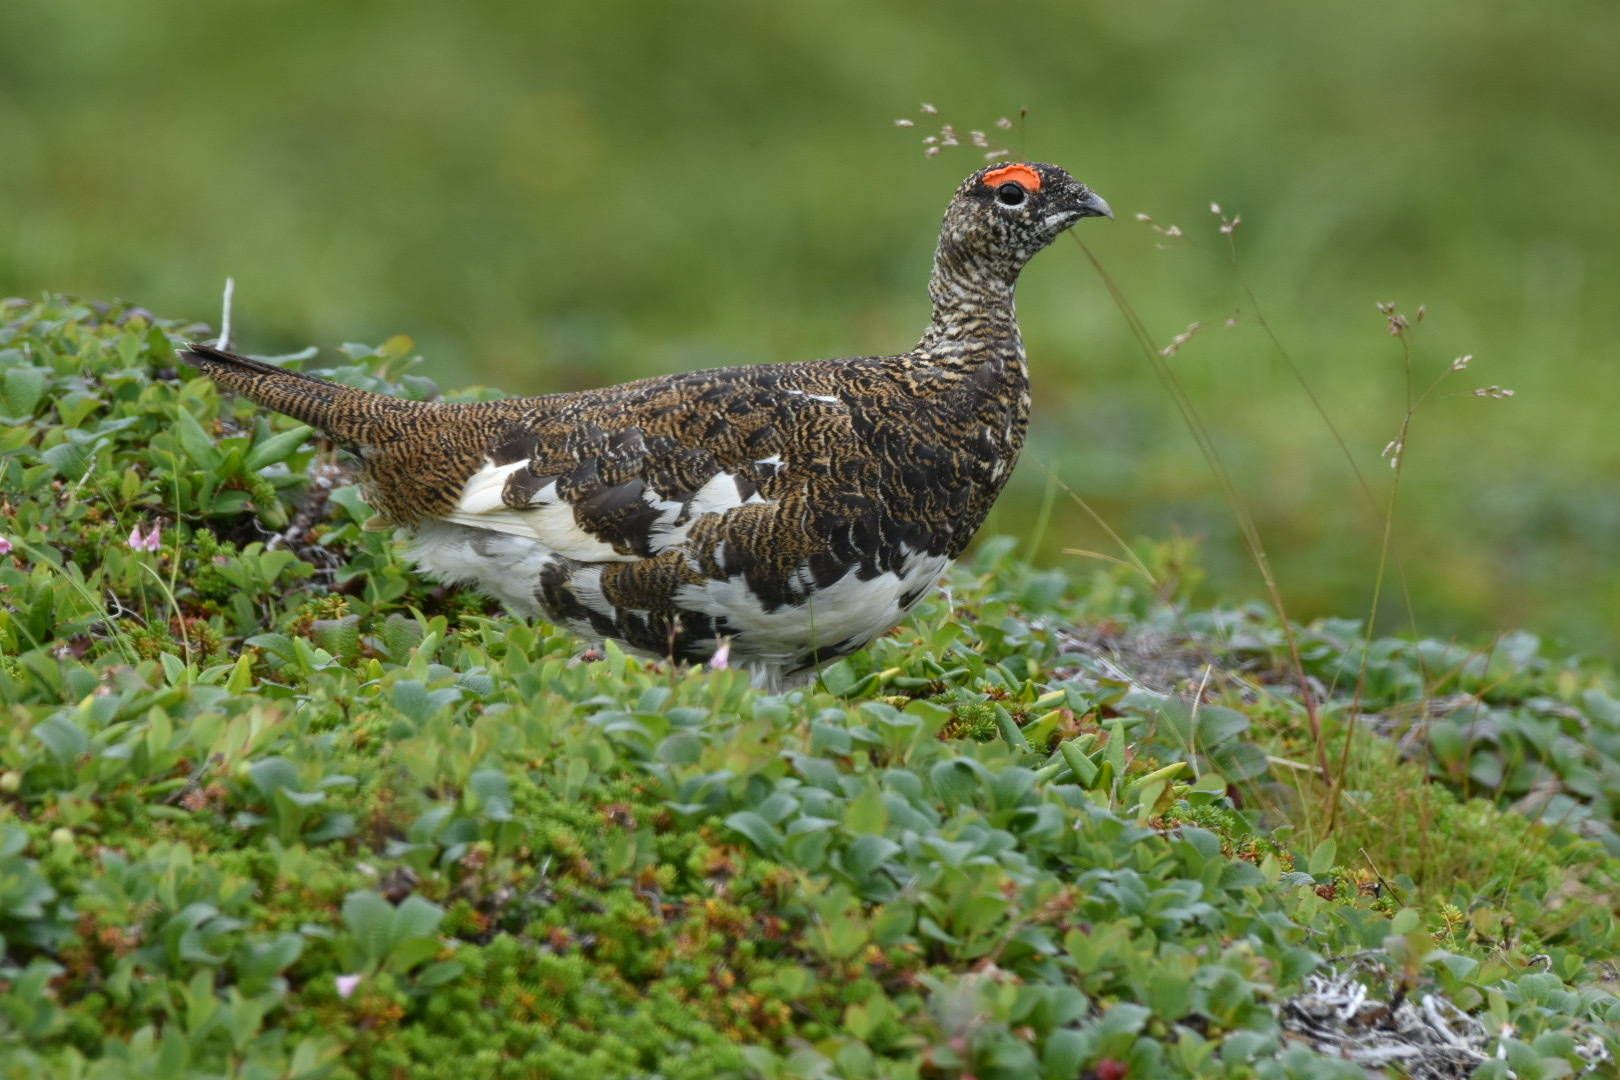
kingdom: Animalia
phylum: Chordata
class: Aves
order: Galliformes
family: Phasianidae
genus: Lagopus
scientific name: Lagopus muta
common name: Rock ptarmigan
